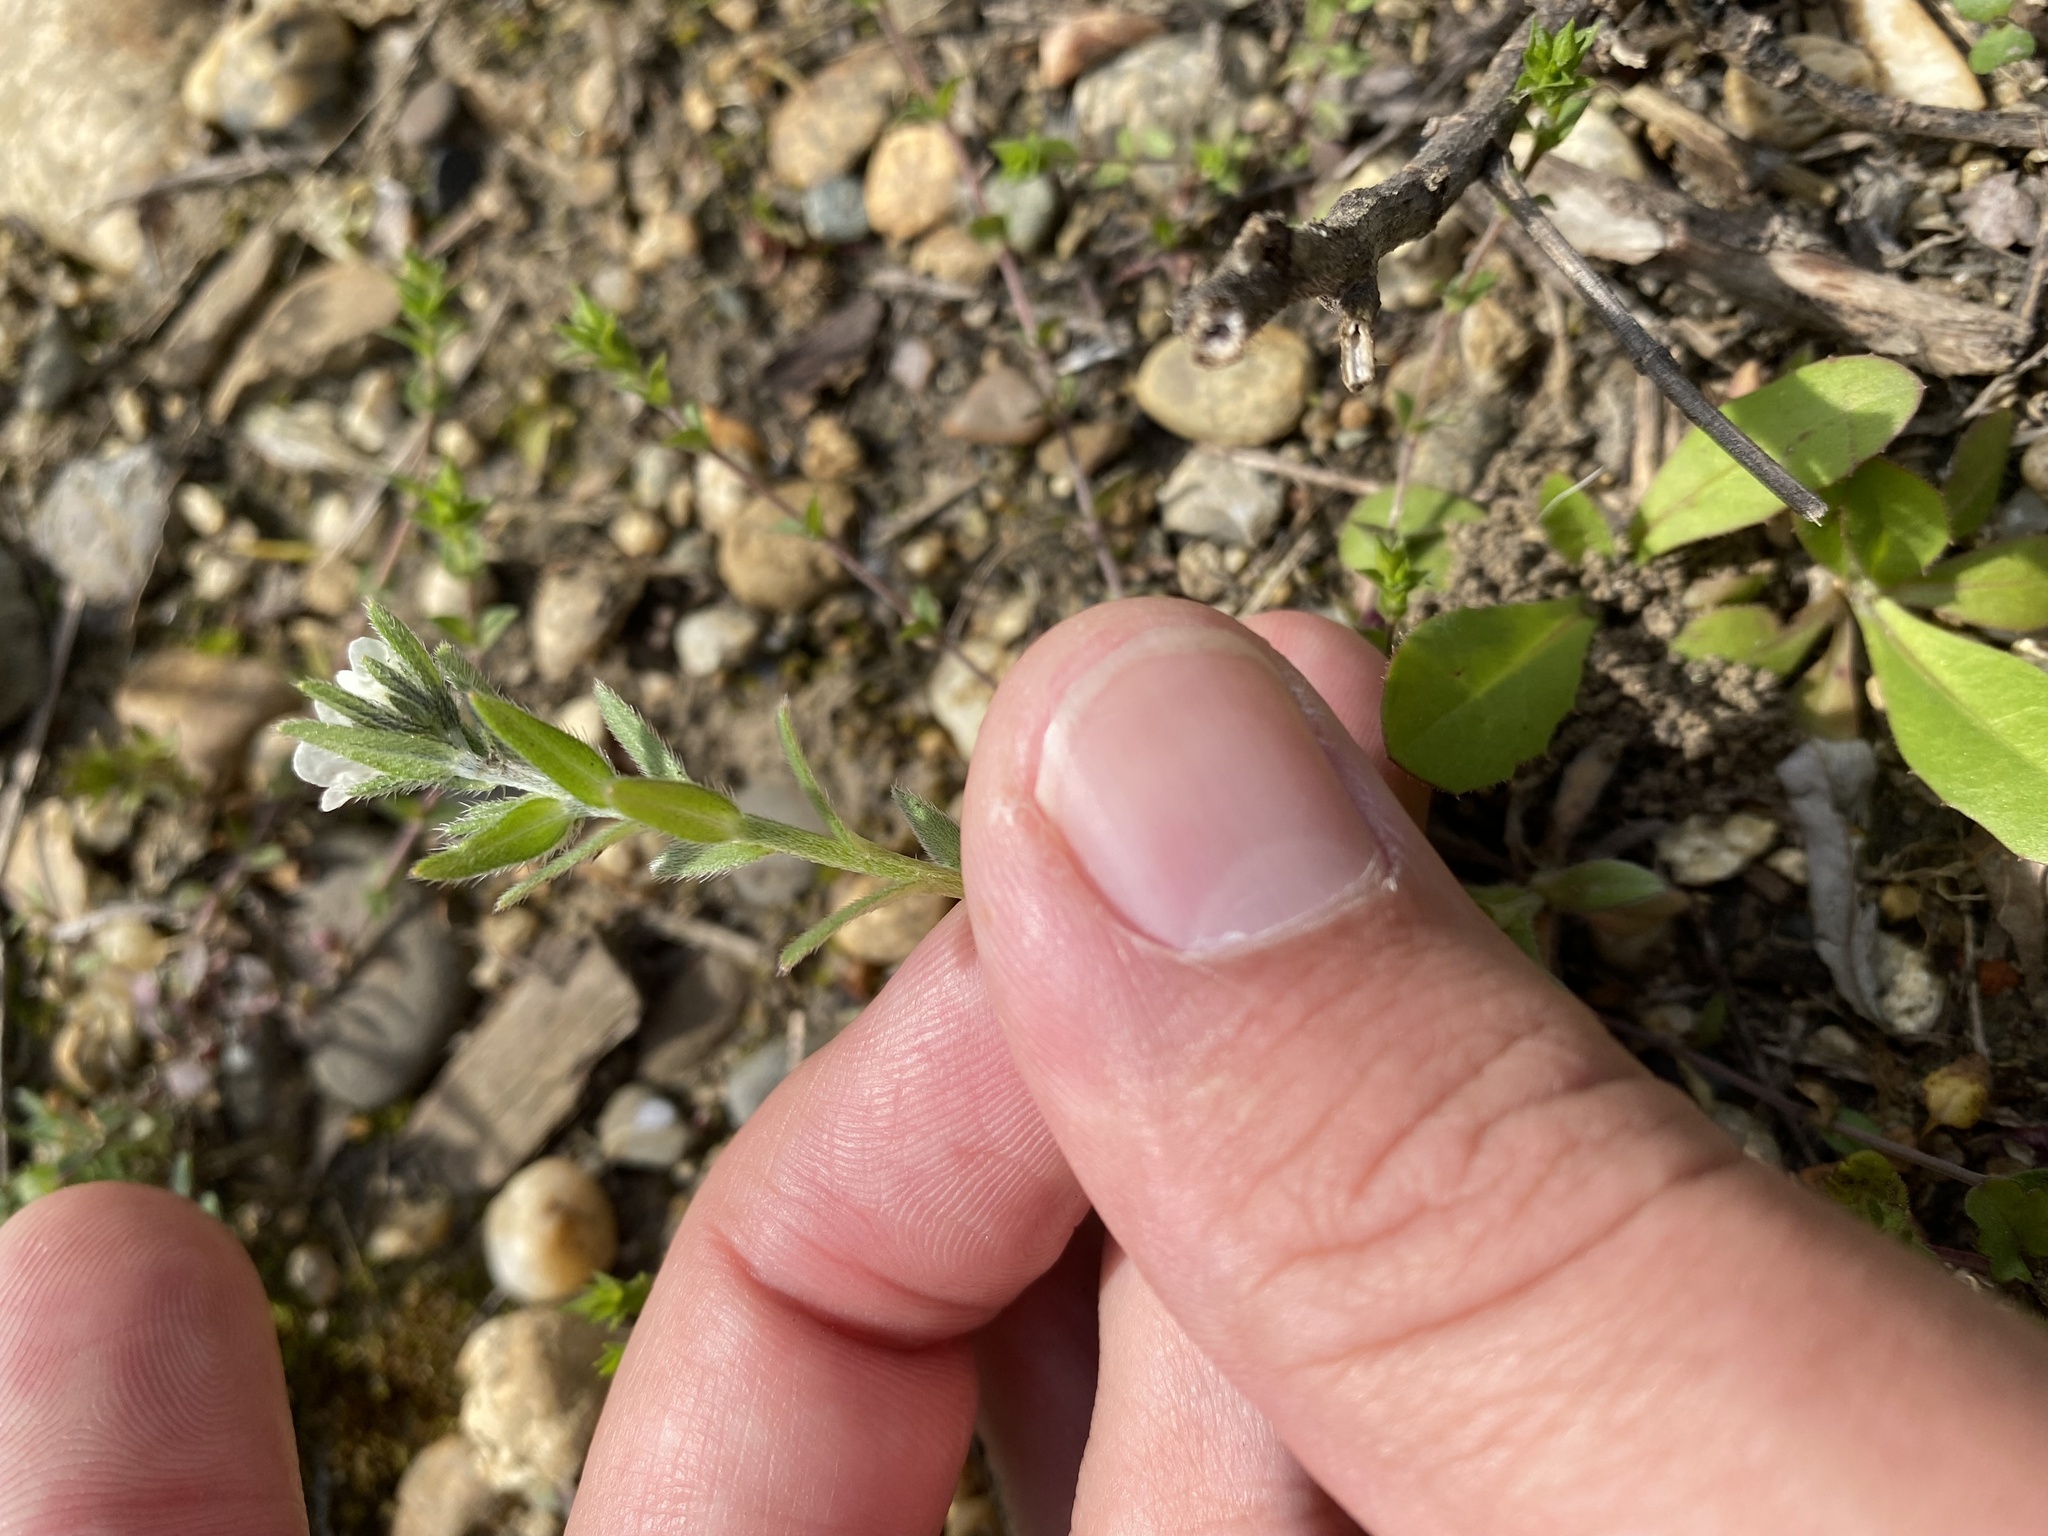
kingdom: Plantae
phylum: Tracheophyta
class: Magnoliopsida
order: Boraginales
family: Boraginaceae
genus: Buglossoides
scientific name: Buglossoides arvensis
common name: Corn gromwell
